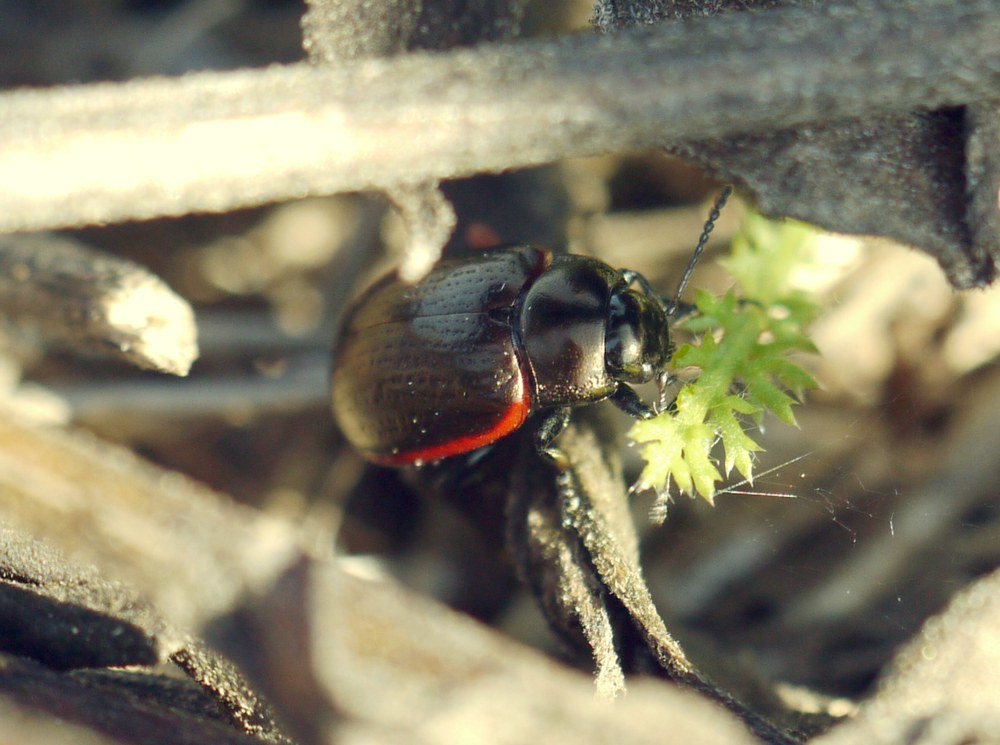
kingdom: Animalia
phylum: Arthropoda
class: Insecta
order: Coleoptera
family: Chrysomelidae
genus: Chrysolina
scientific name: Chrysolina marginata
